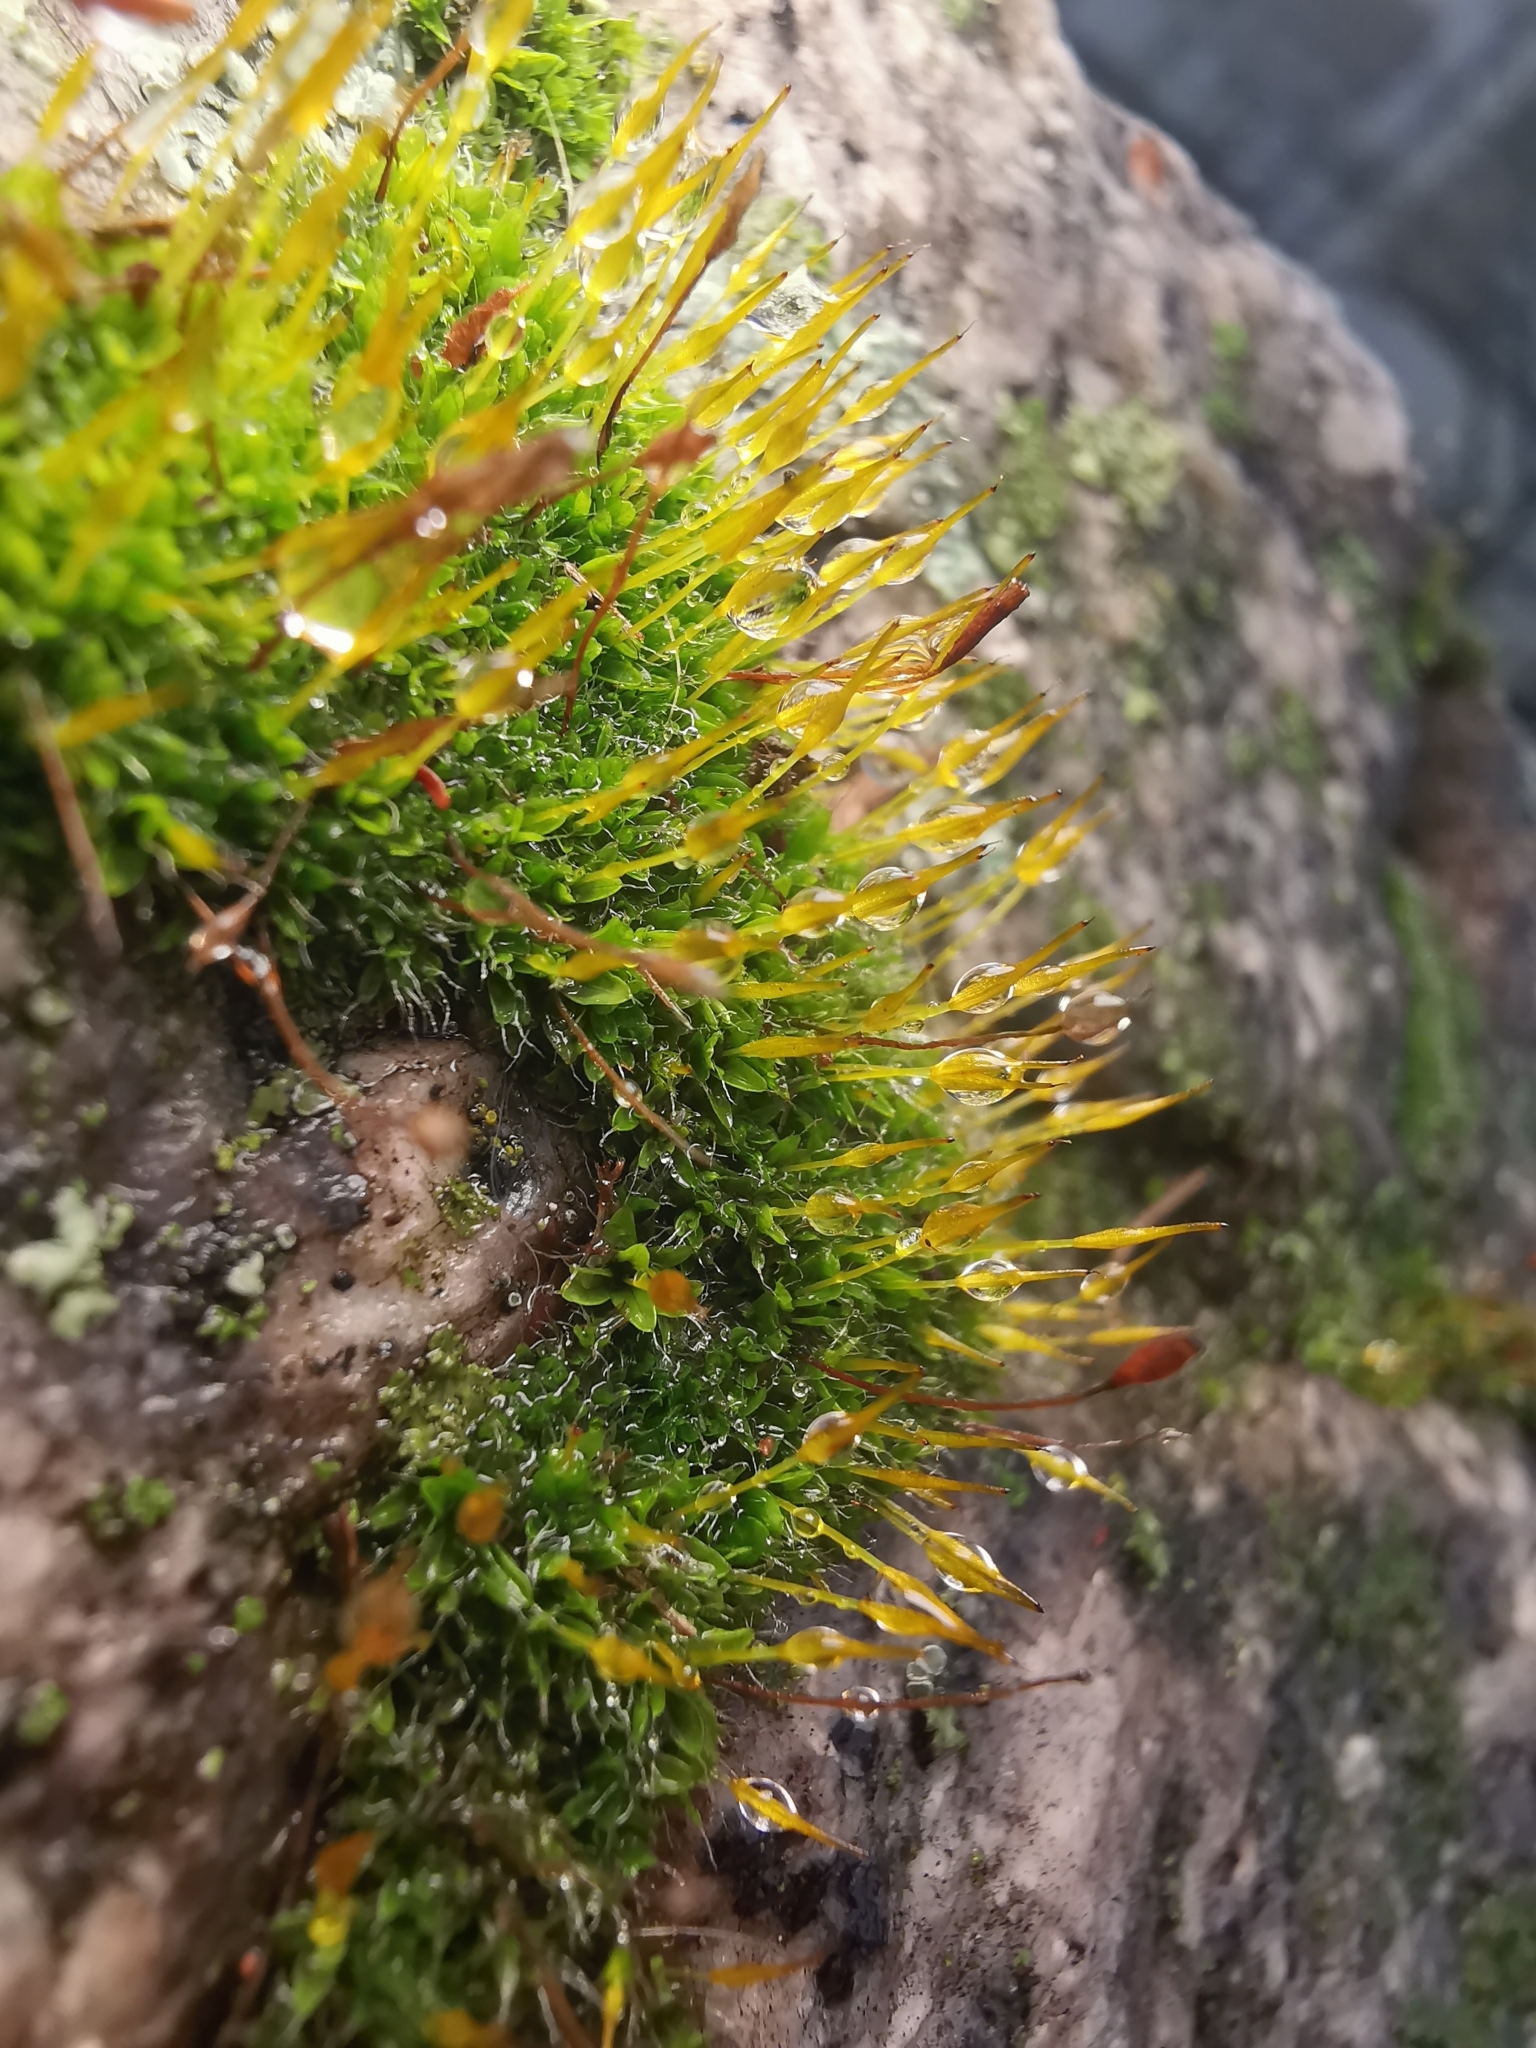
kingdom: Plantae
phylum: Bryophyta
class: Bryopsida
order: Pottiales
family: Pottiaceae
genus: Tortula
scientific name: Tortula muralis
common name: Wall screw-moss
